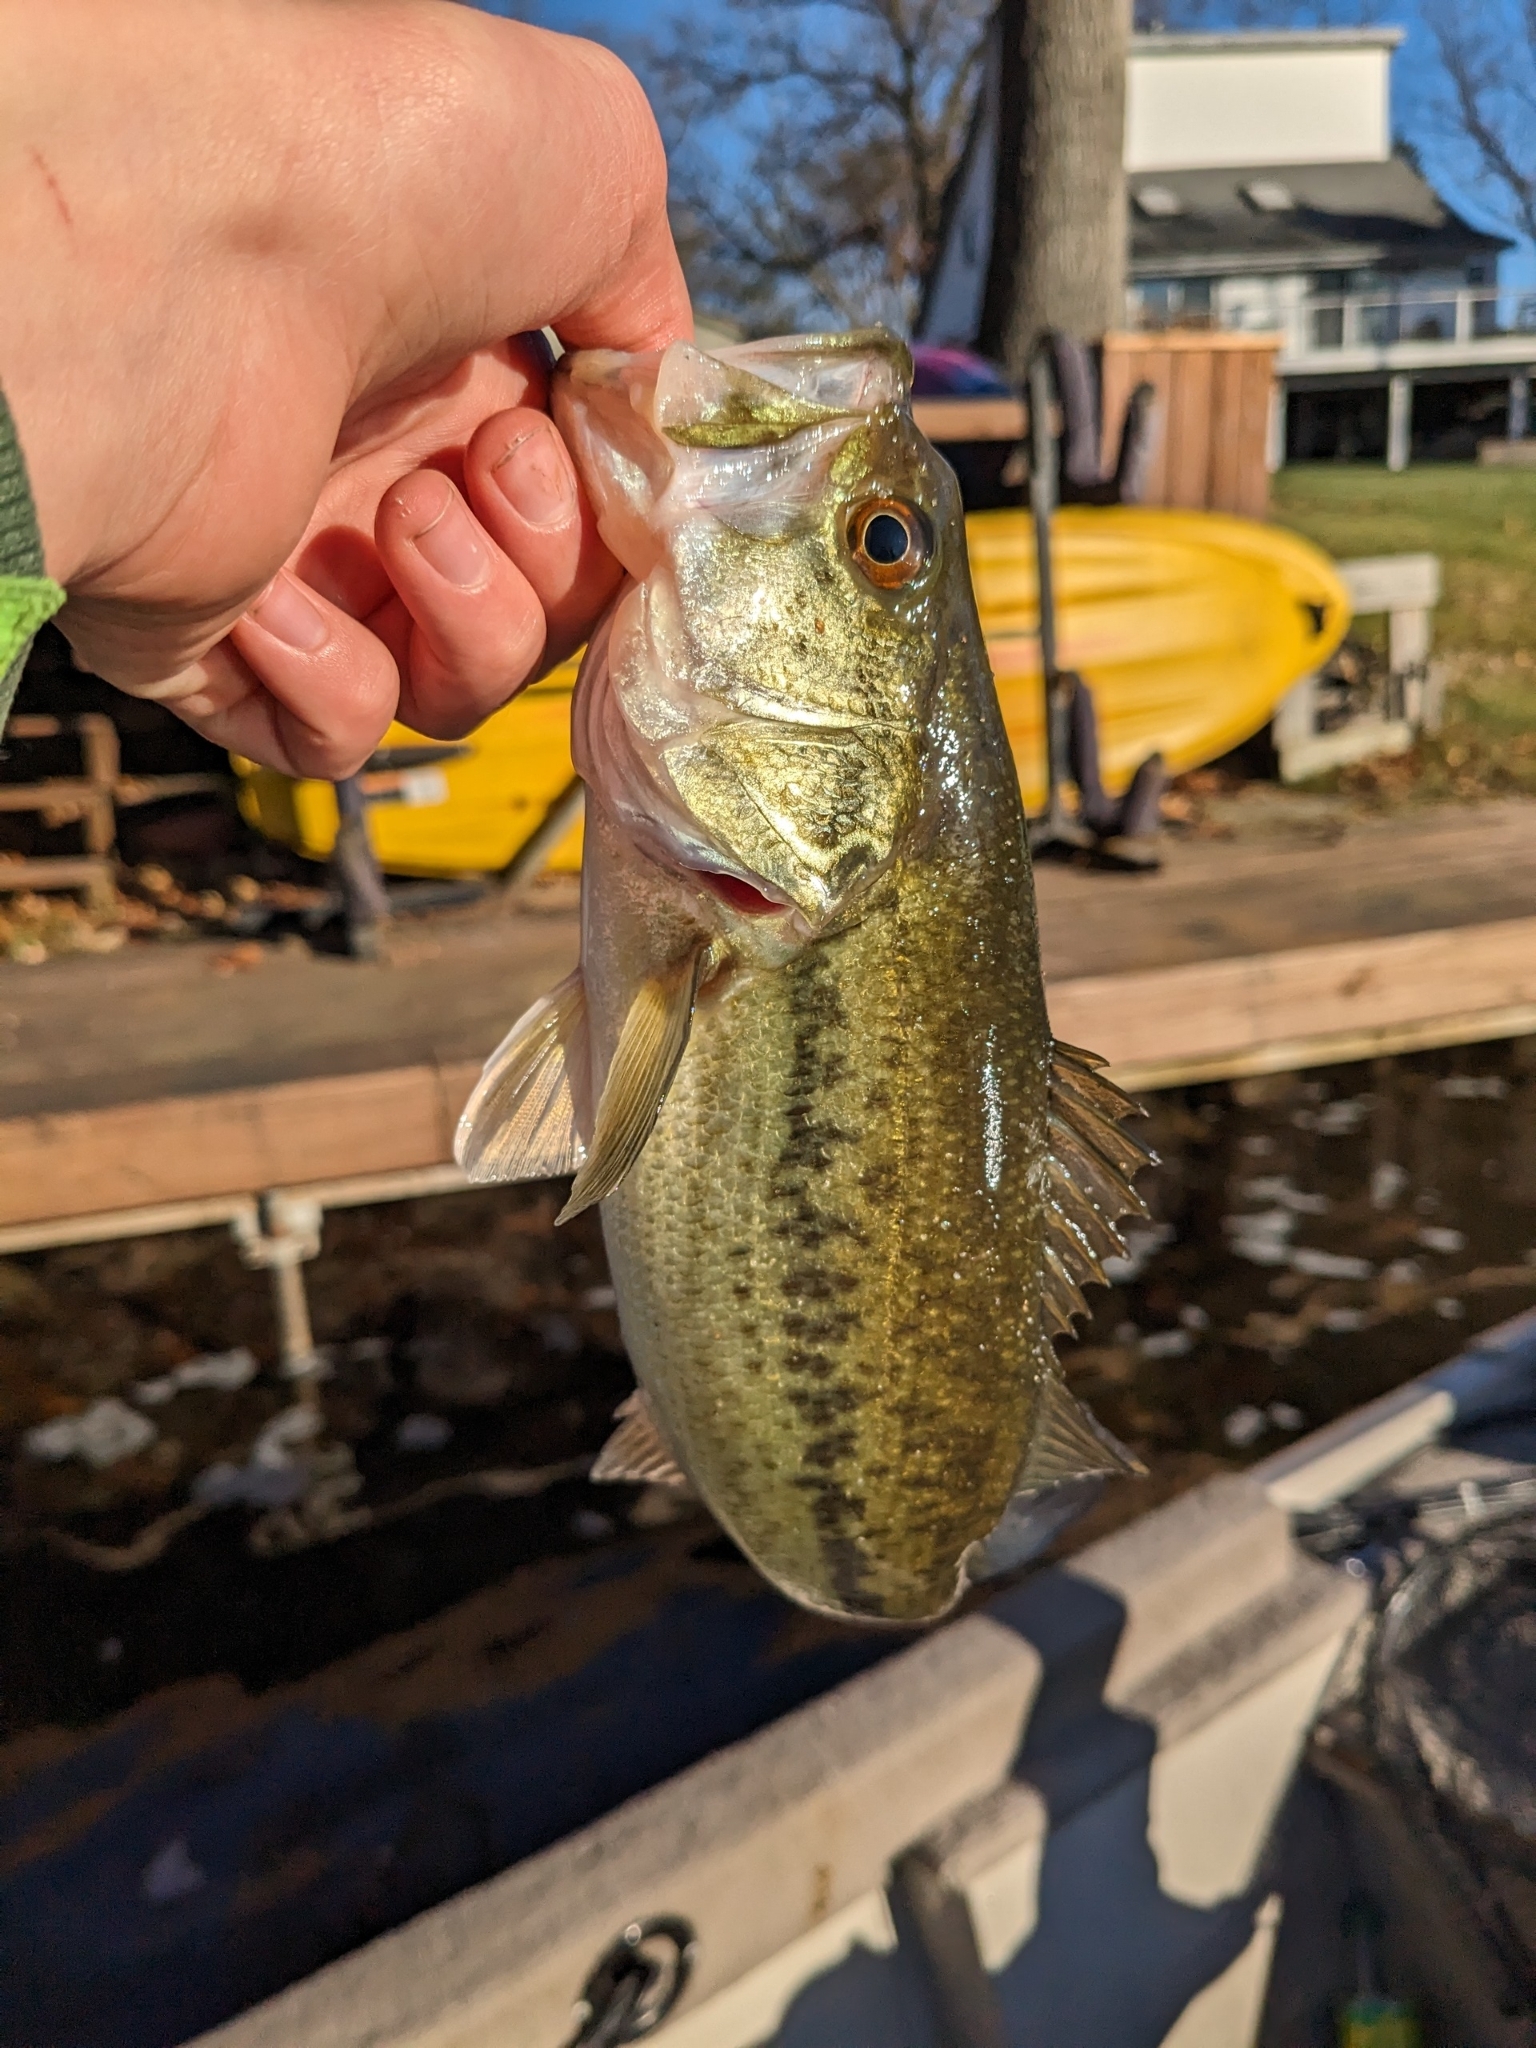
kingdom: Animalia
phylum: Chordata
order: Perciformes
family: Centrarchidae
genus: Micropterus
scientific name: Micropterus
